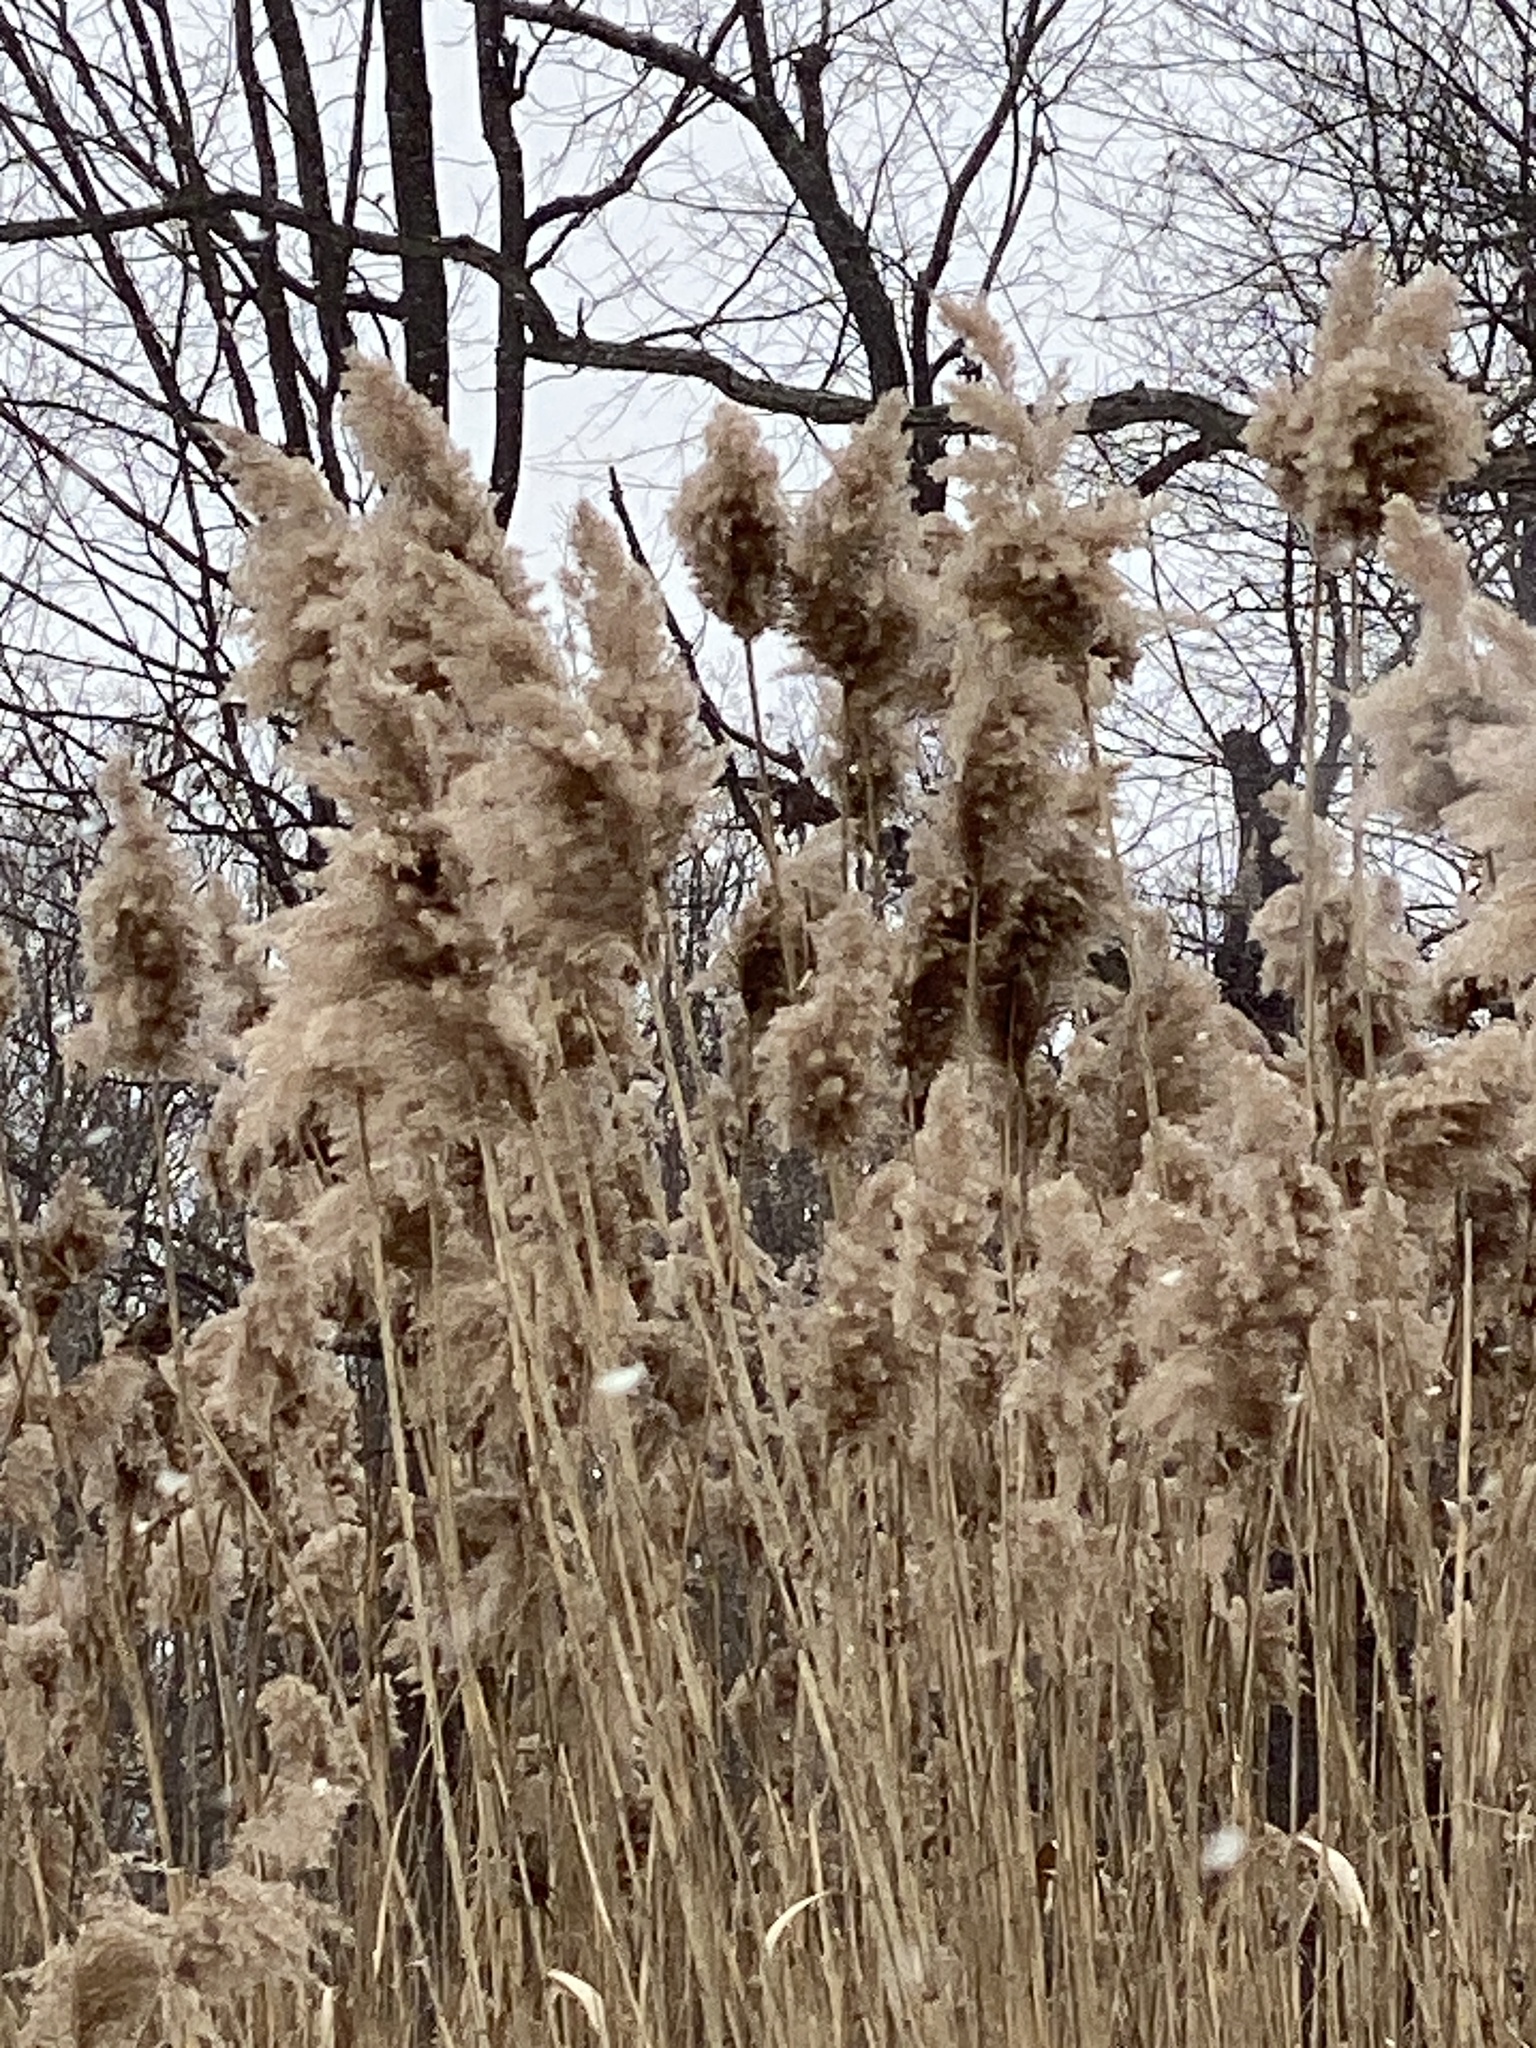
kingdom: Plantae
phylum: Tracheophyta
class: Liliopsida
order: Poales
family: Poaceae
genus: Phragmites
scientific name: Phragmites australis
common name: Common reed
